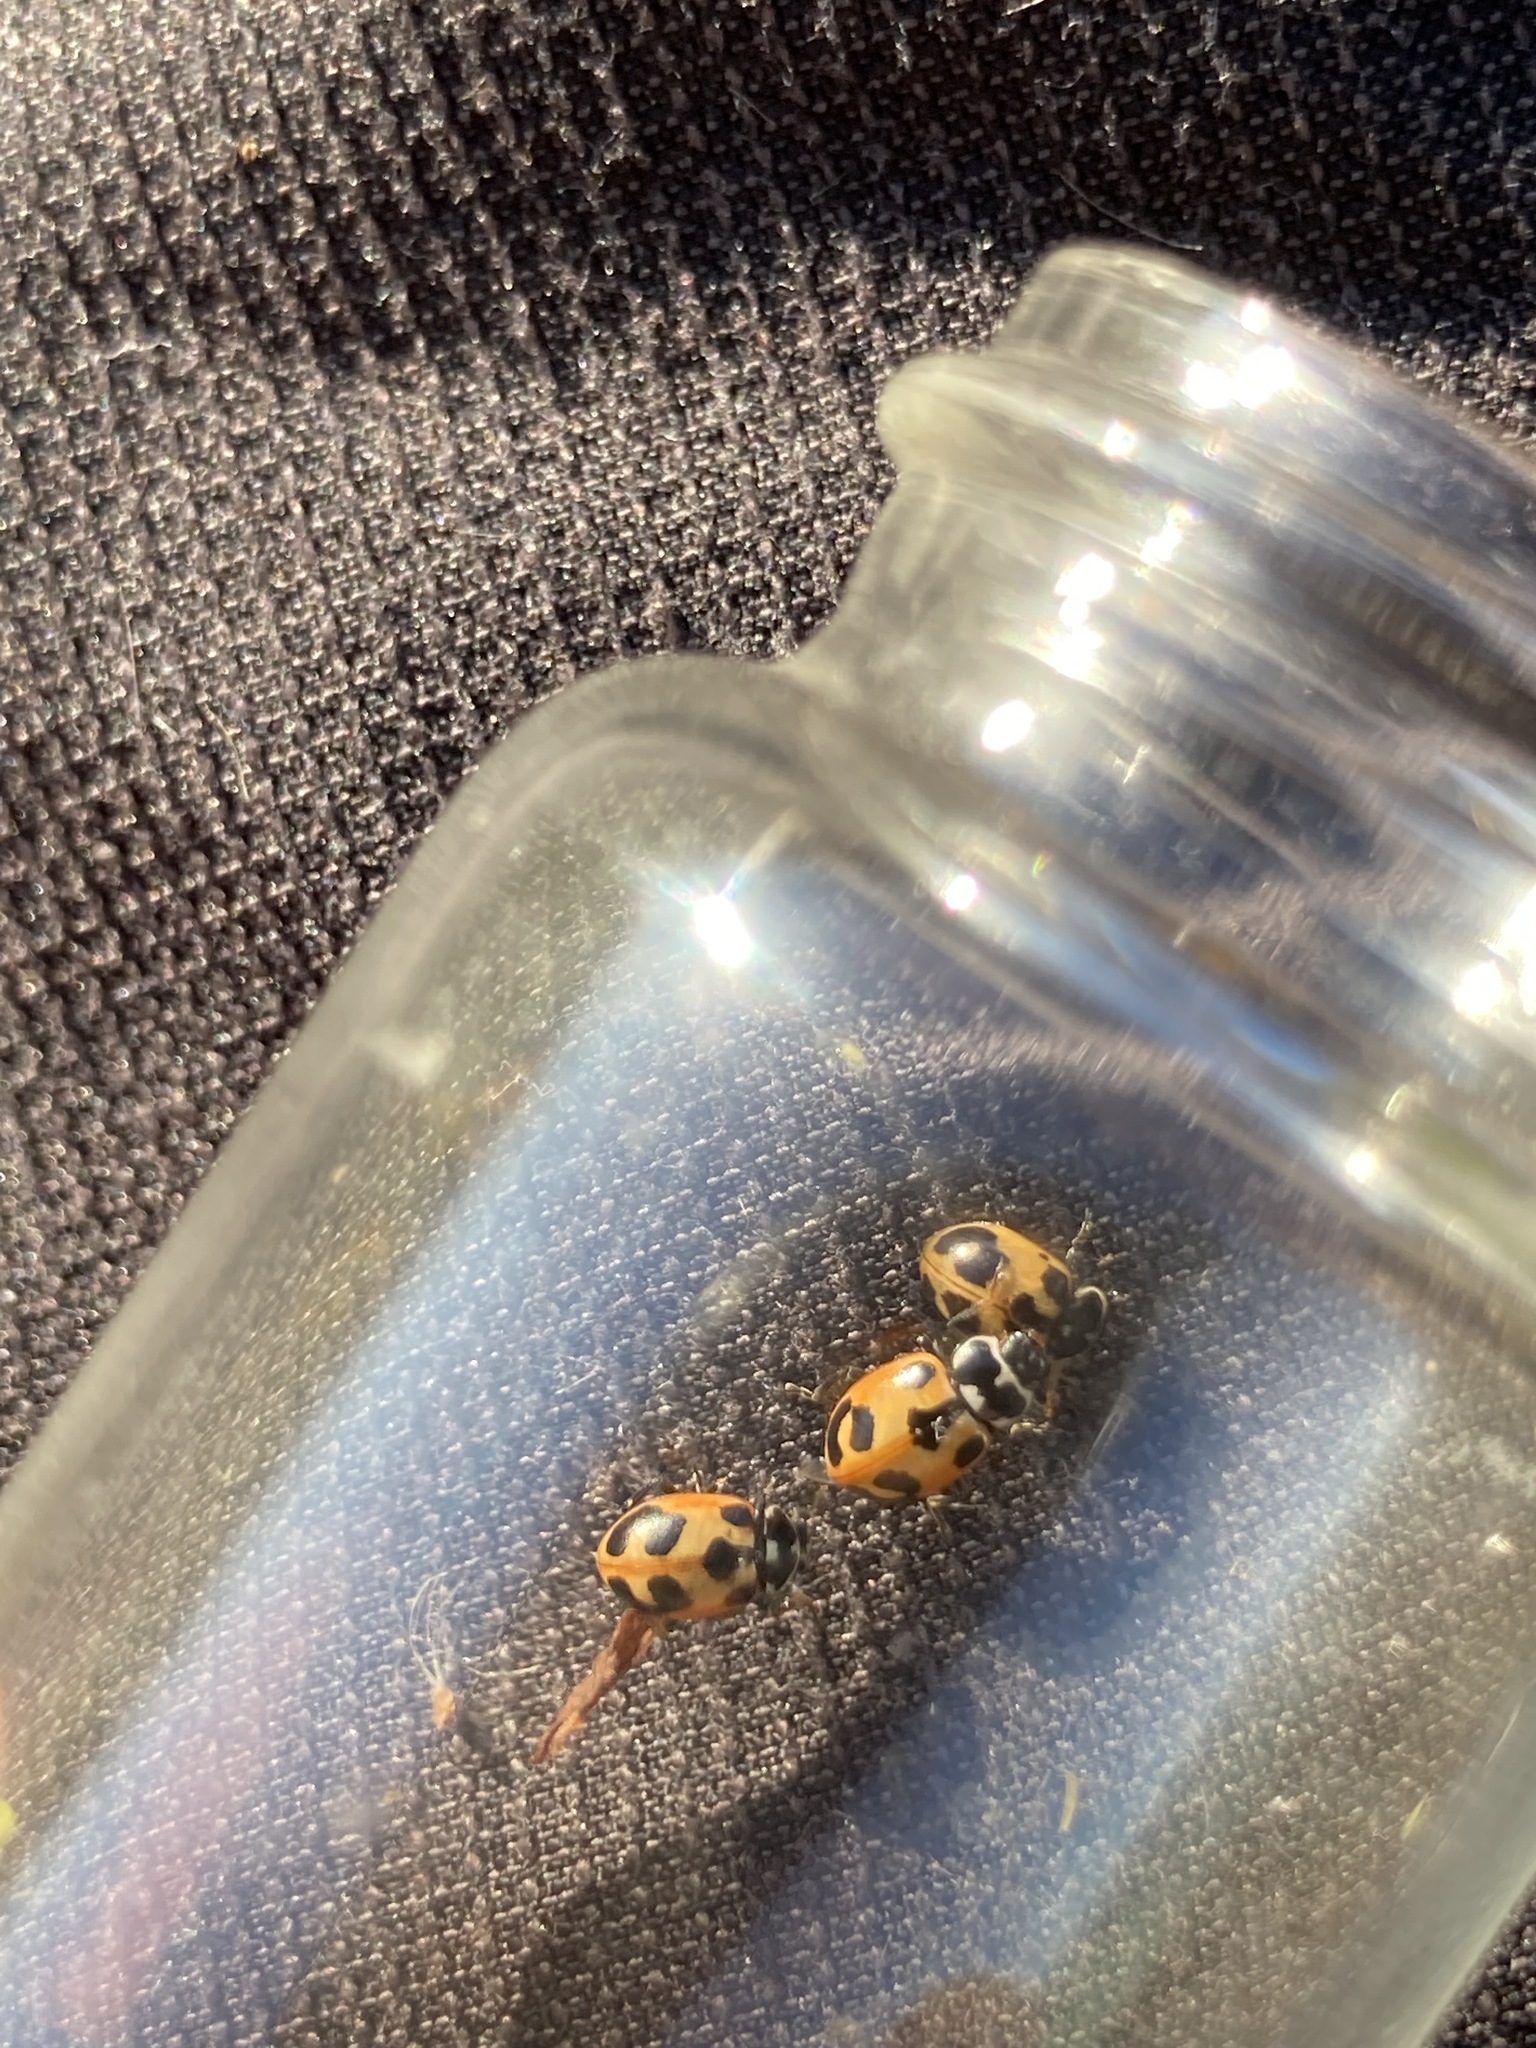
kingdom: Animalia
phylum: Arthropoda
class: Insecta
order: Coleoptera
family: Coccinellidae
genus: Hippodamia
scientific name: Hippodamia parenthesis
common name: Parenthesis lady beetle
